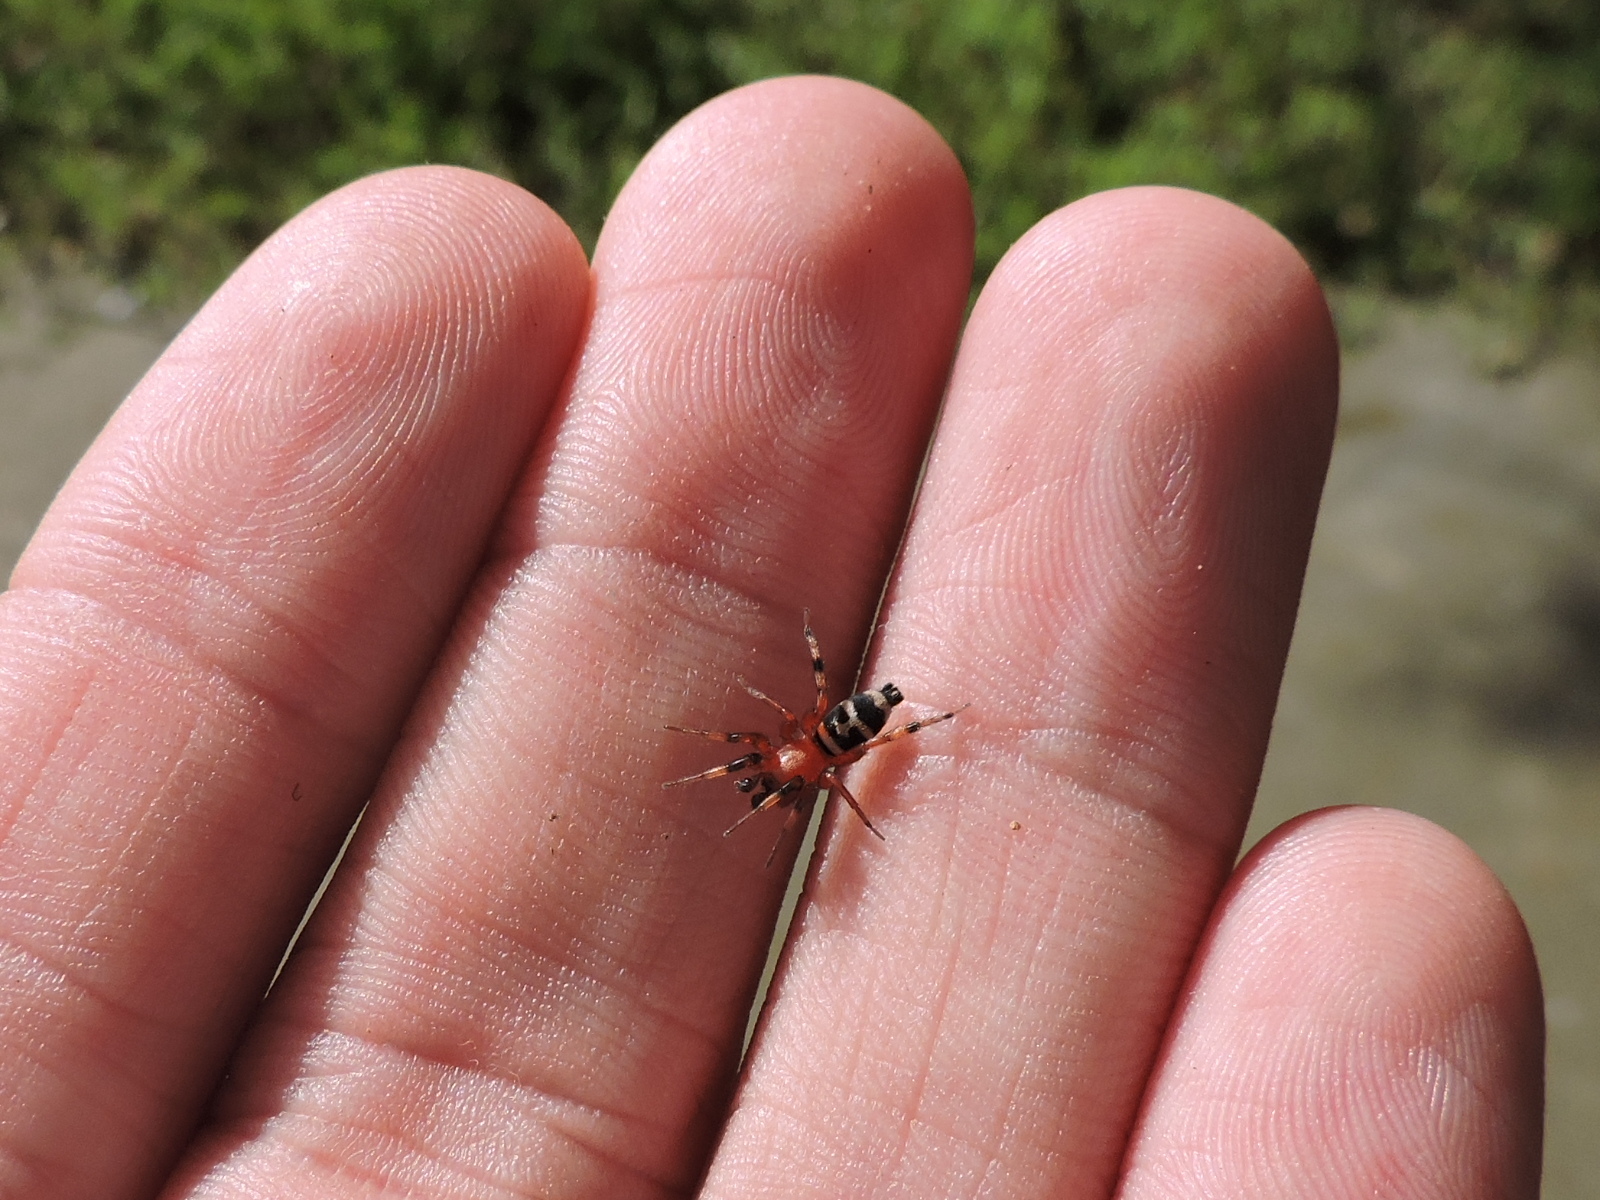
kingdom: Animalia
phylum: Arthropoda
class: Arachnida
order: Araneae
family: Gnaphosidae
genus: Sergiolus
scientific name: Sergiolus capulatus
